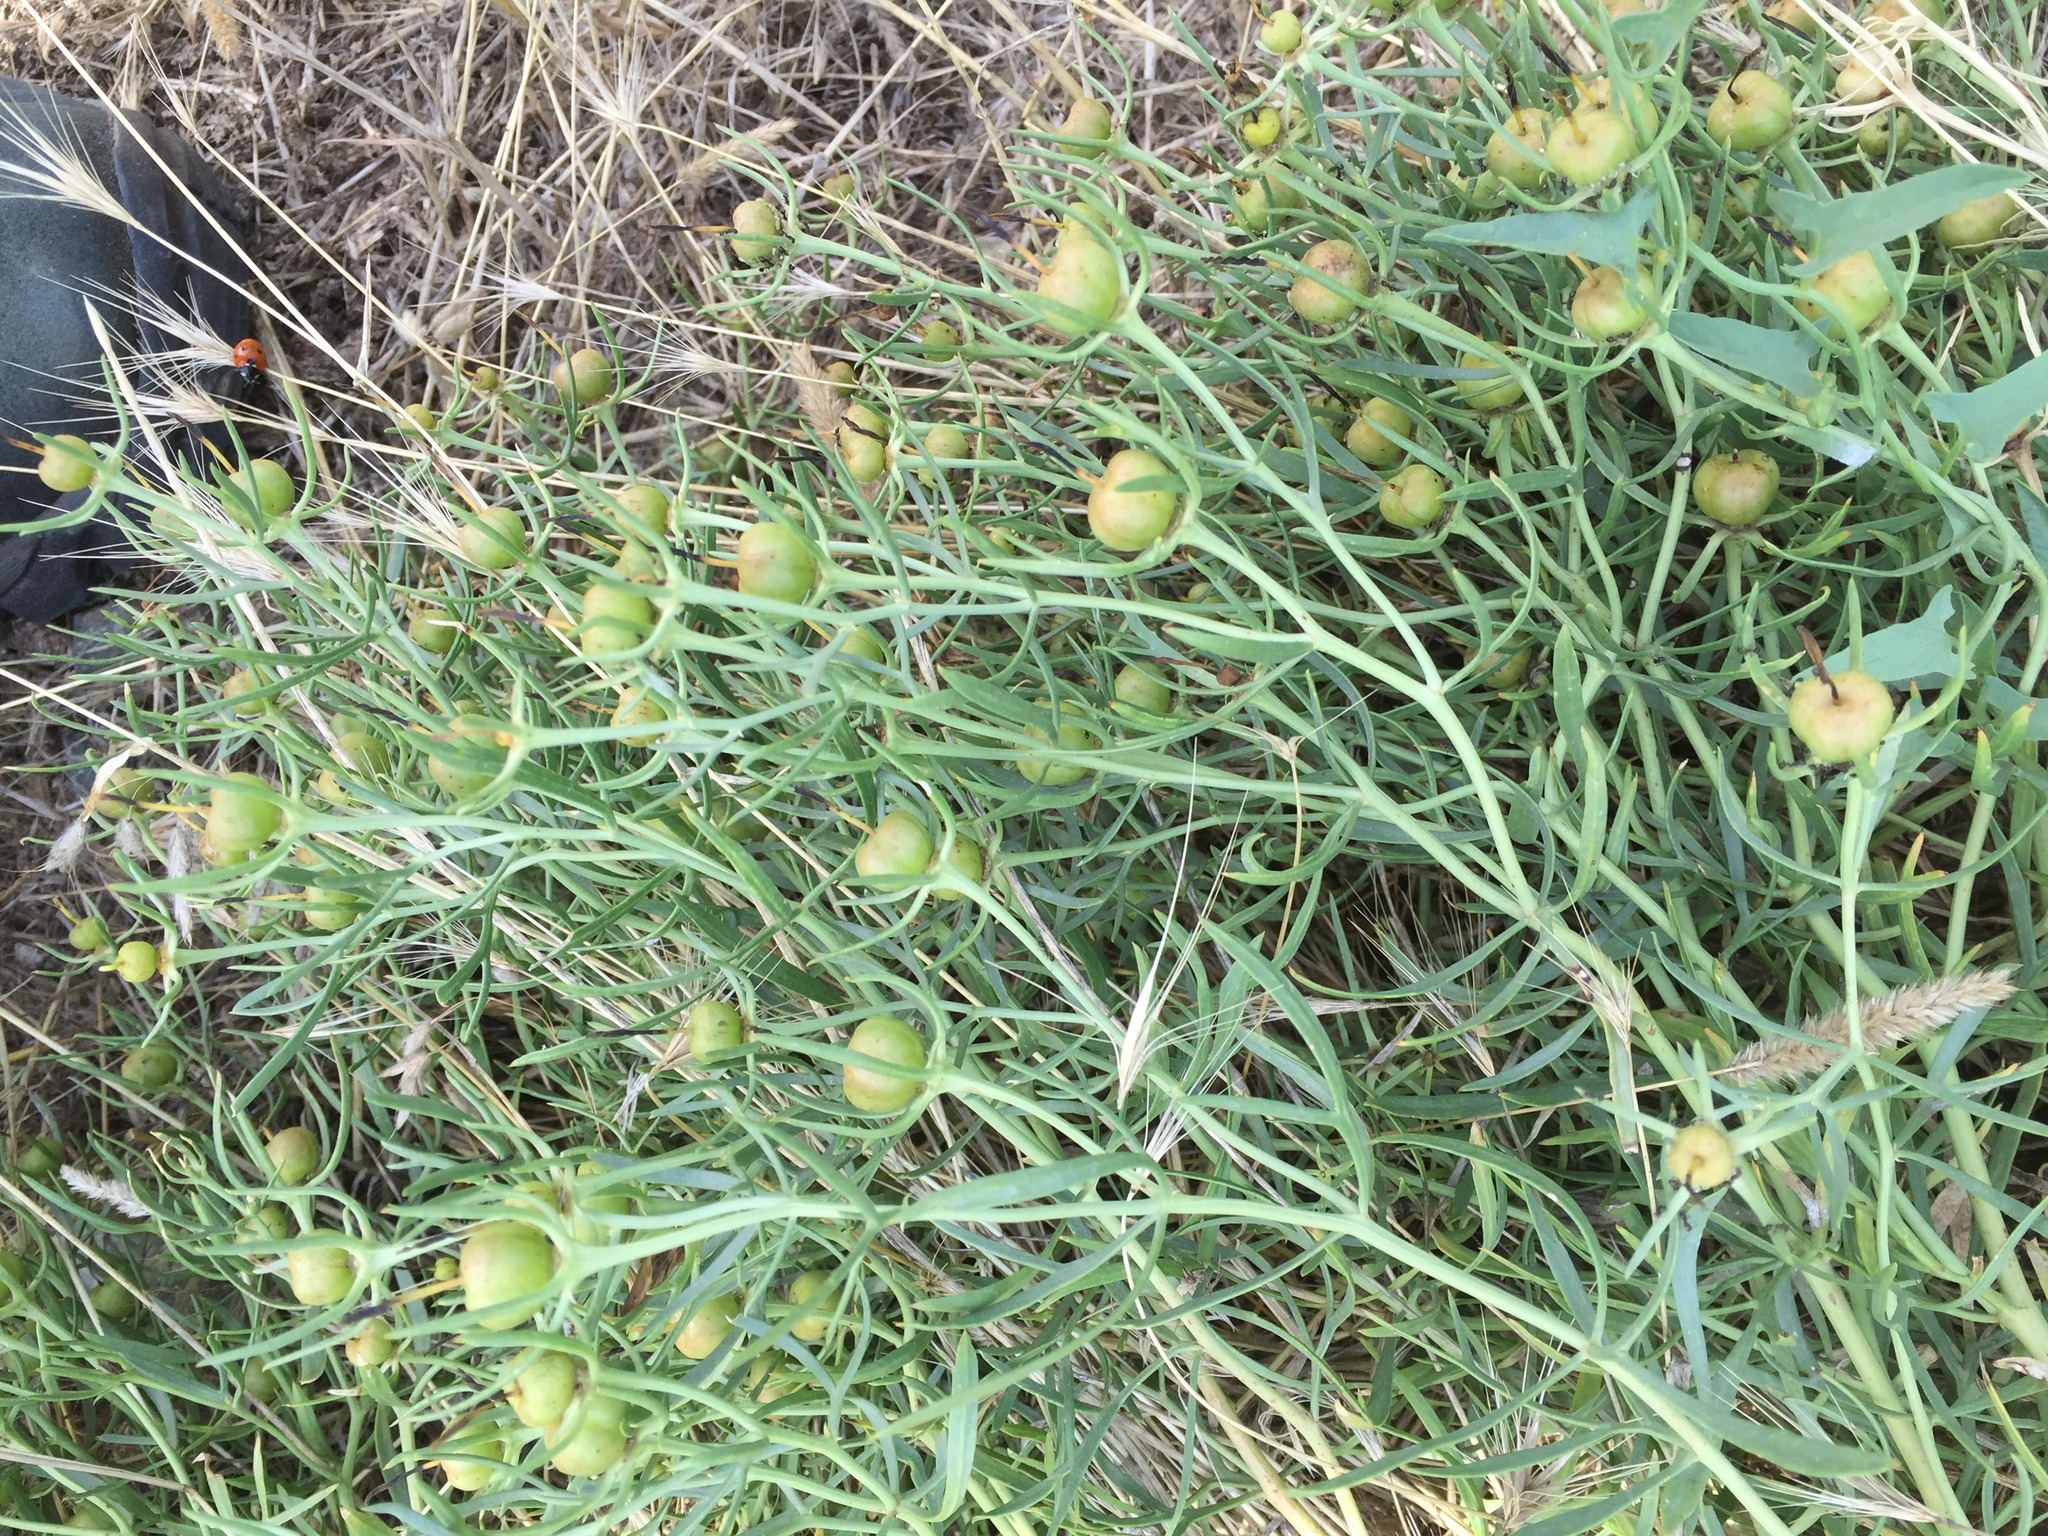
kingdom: Plantae
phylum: Tracheophyta
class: Magnoliopsida
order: Sapindales
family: Tetradiclidaceae
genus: Peganum
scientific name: Peganum harmala
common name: Harmal peganum
